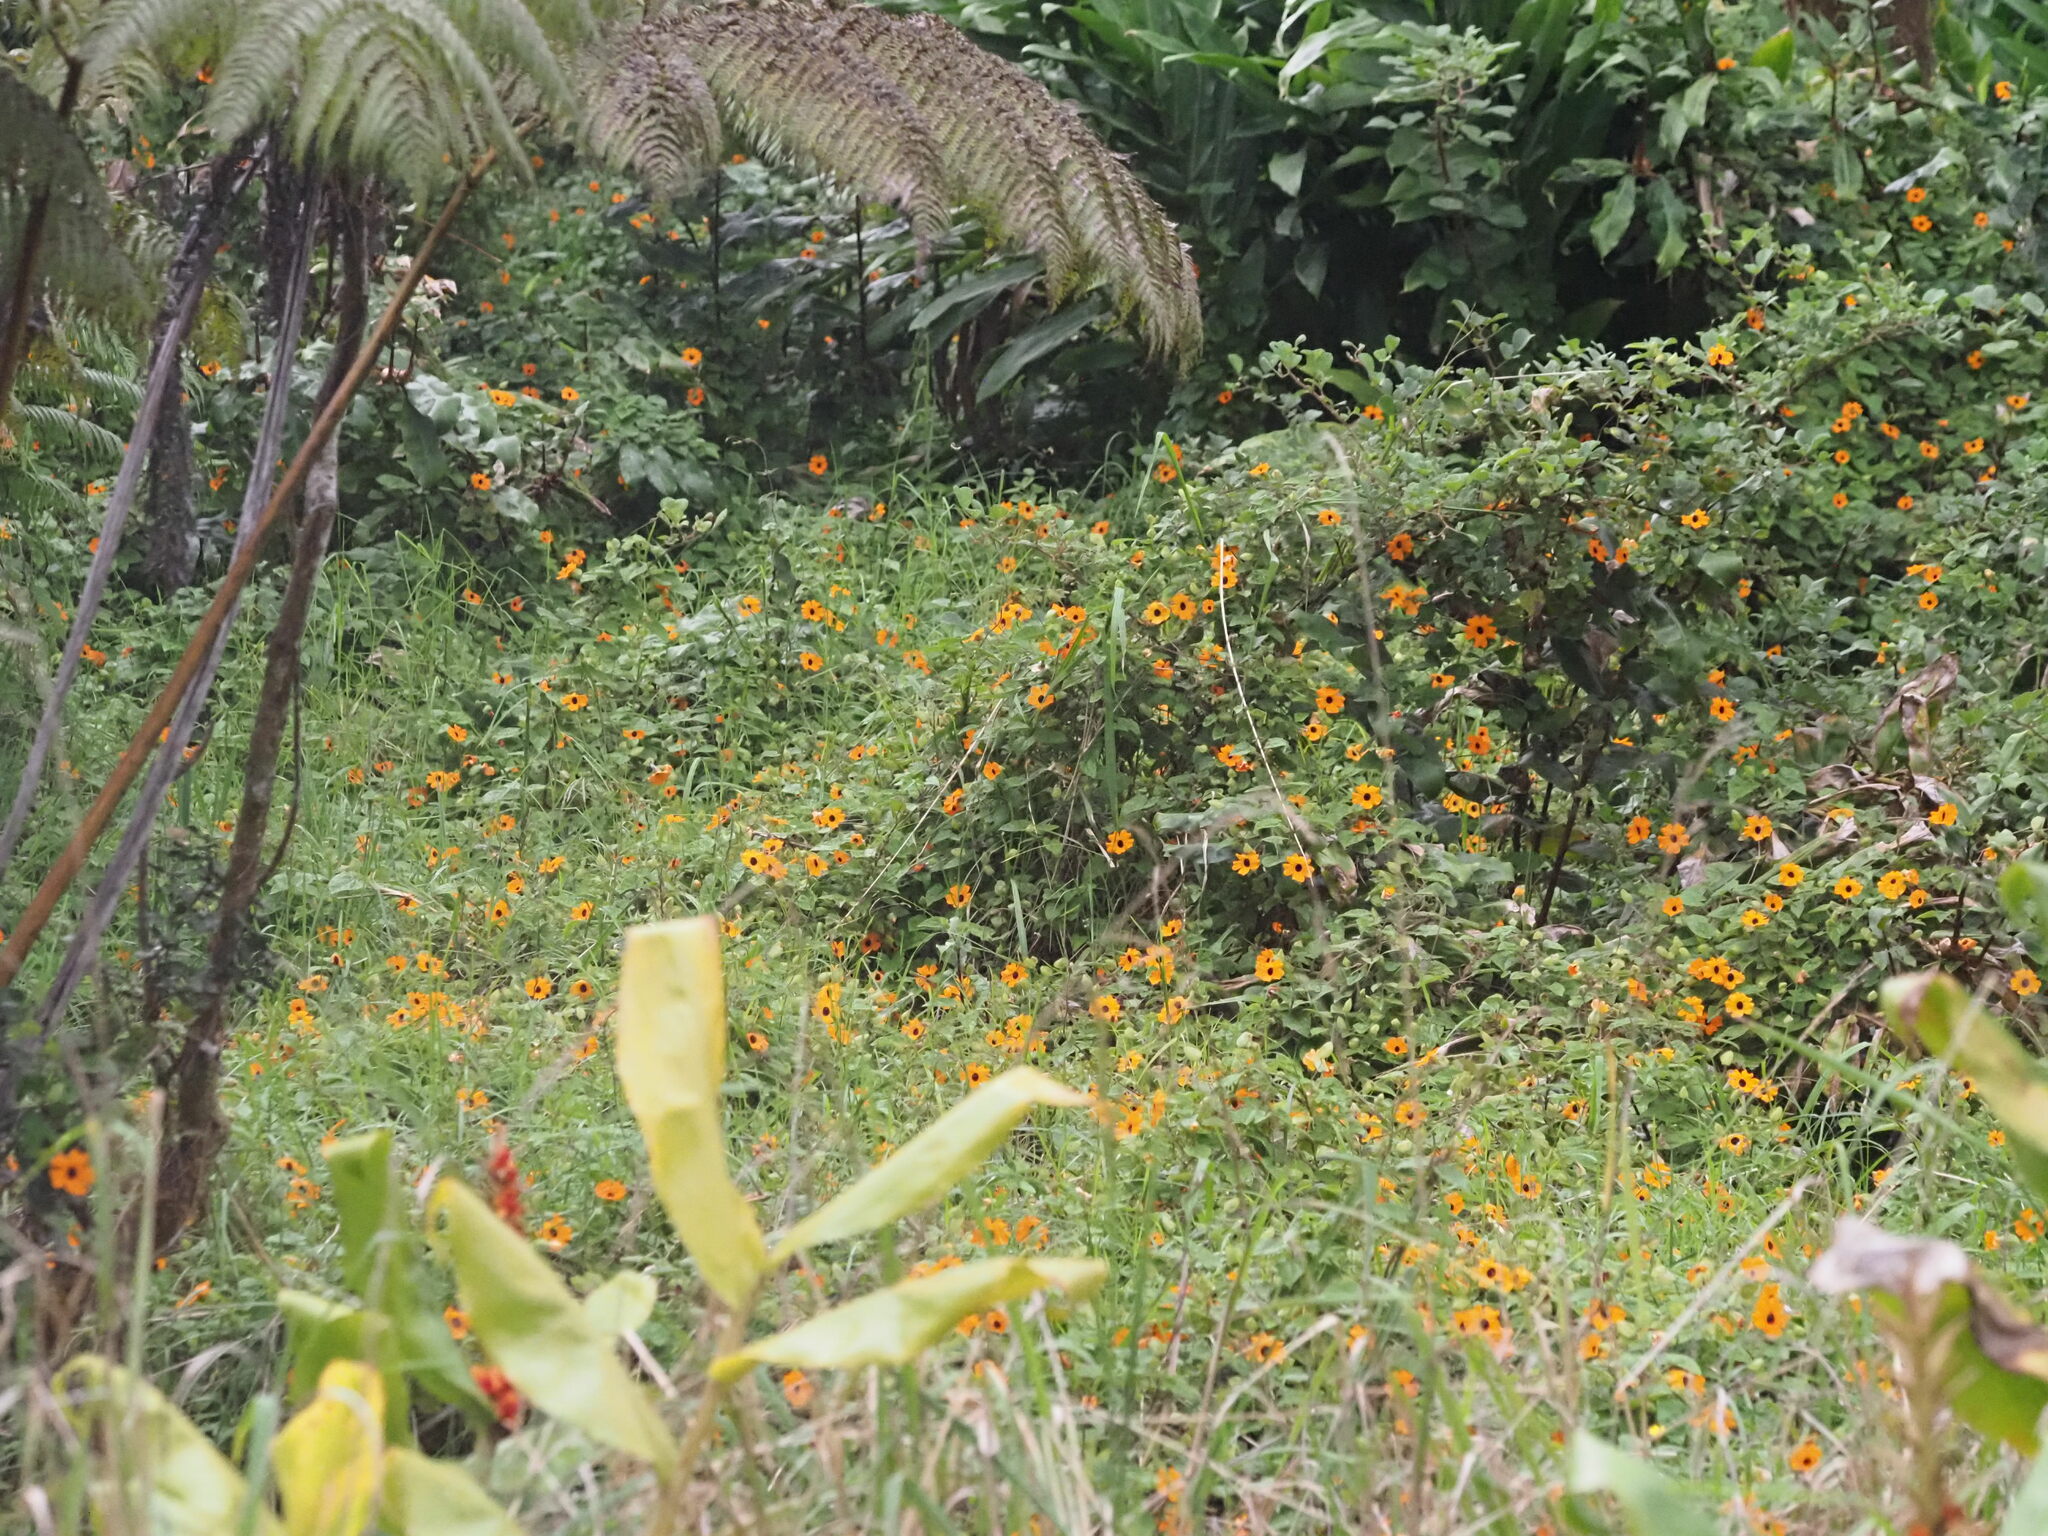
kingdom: Plantae
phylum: Tracheophyta
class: Magnoliopsida
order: Lamiales
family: Acanthaceae
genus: Thunbergia
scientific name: Thunbergia alata
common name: Blackeyed susan vine
